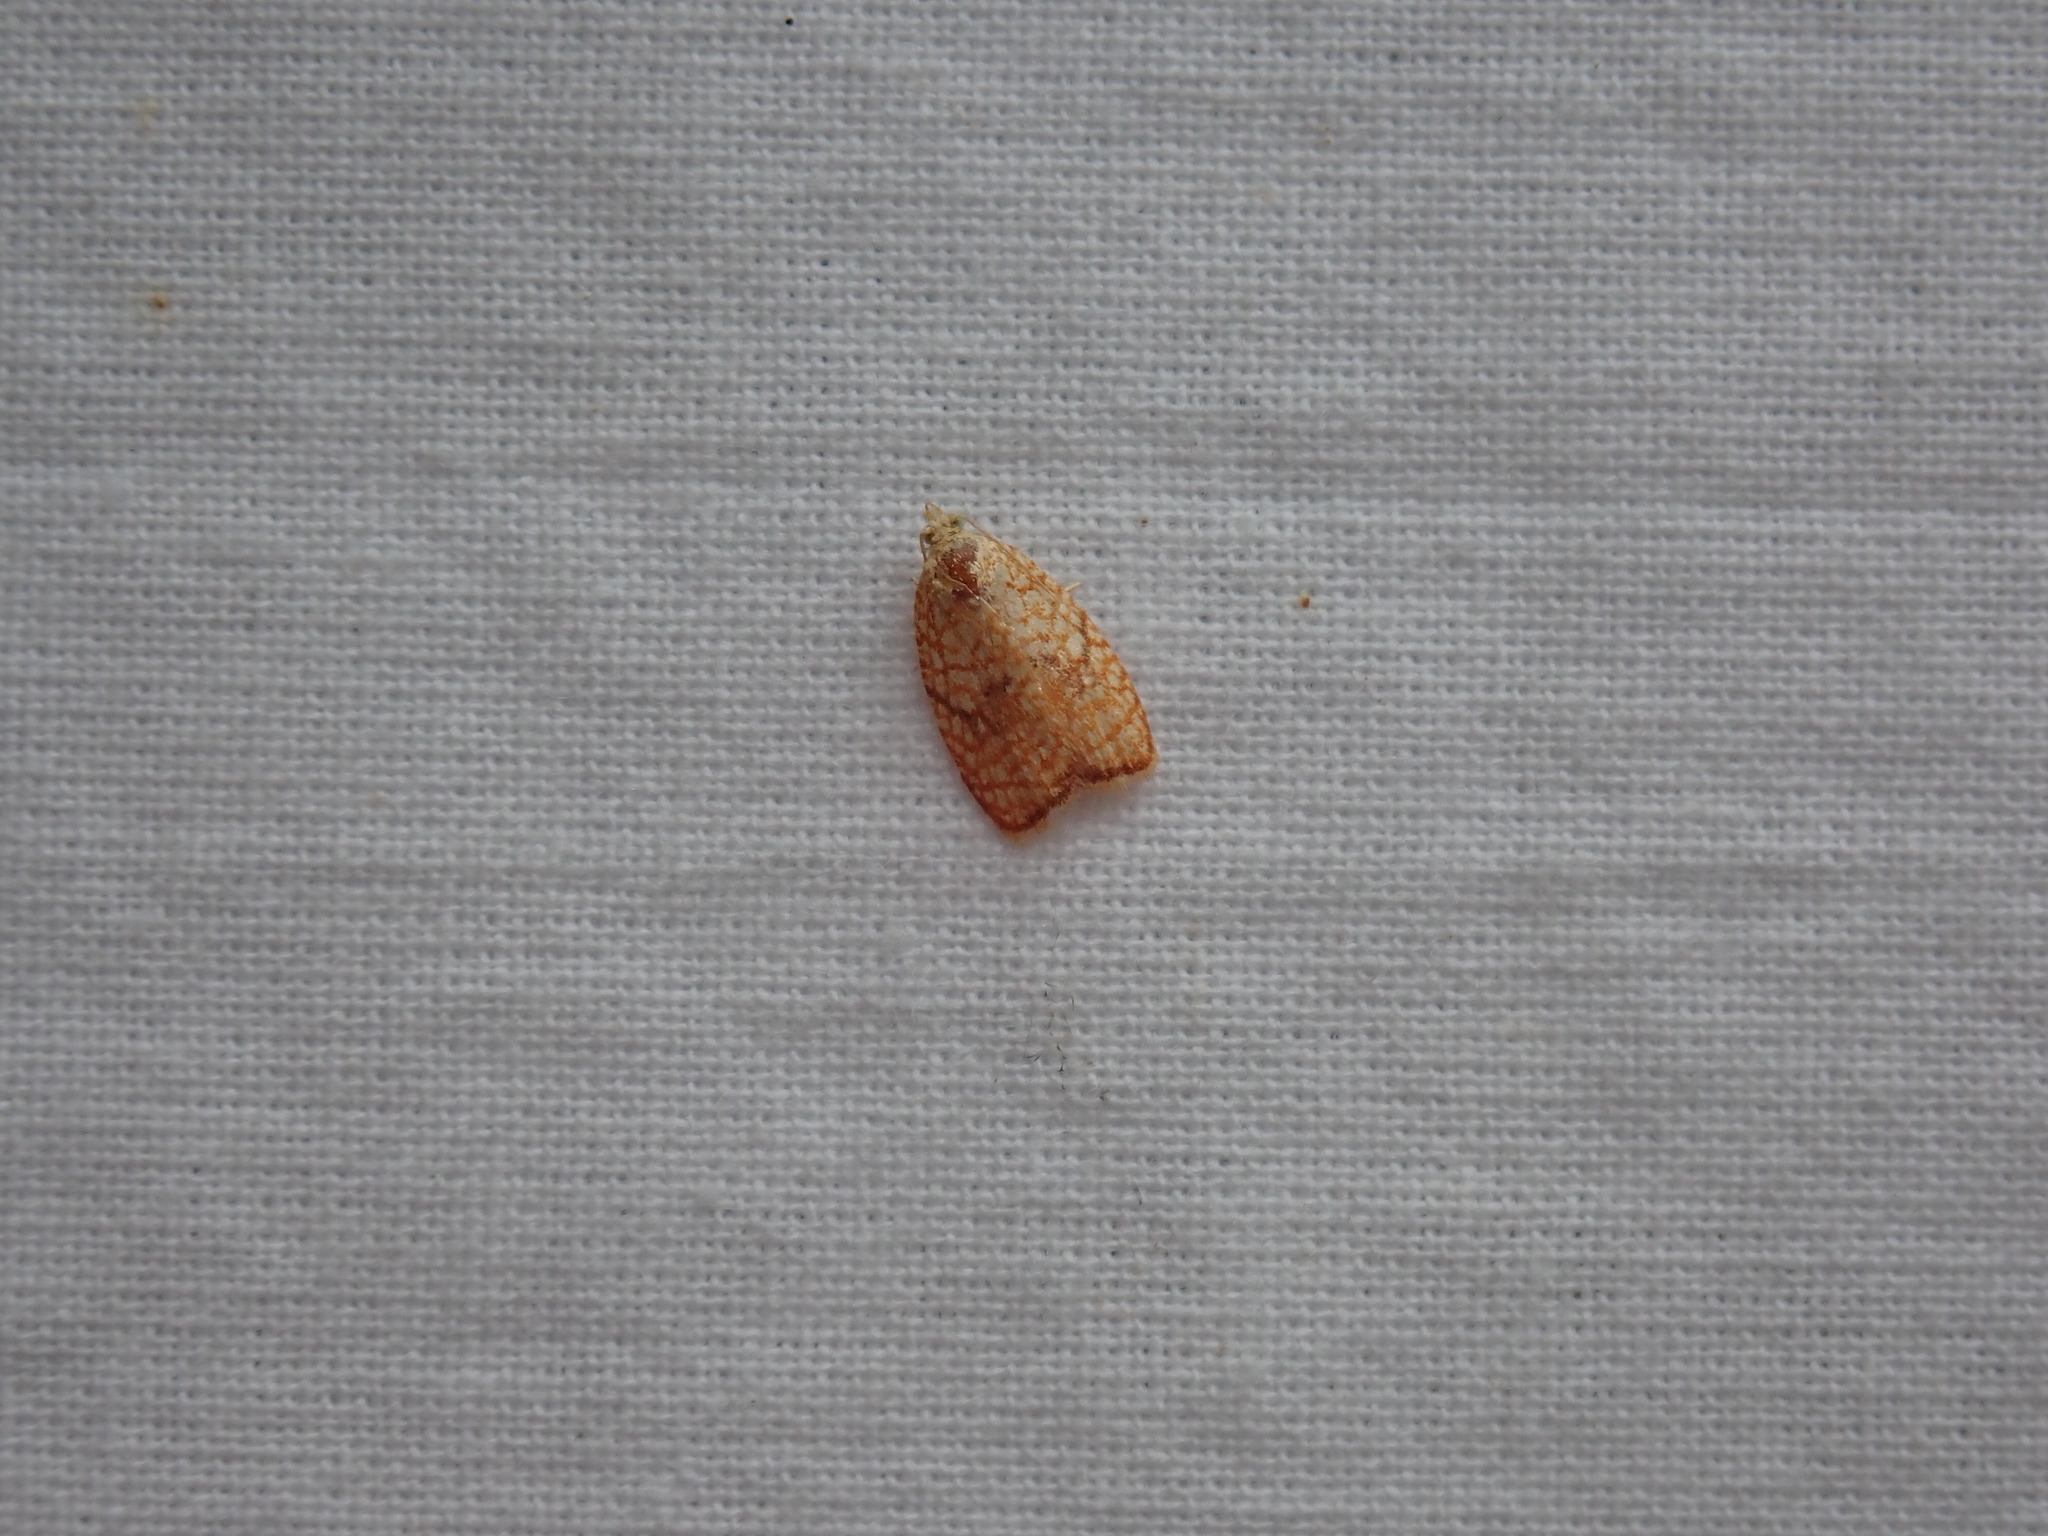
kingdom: Animalia
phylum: Arthropoda
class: Insecta
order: Lepidoptera
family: Tortricidae
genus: Acleris
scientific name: Acleris forsskaleana
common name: Maple button
